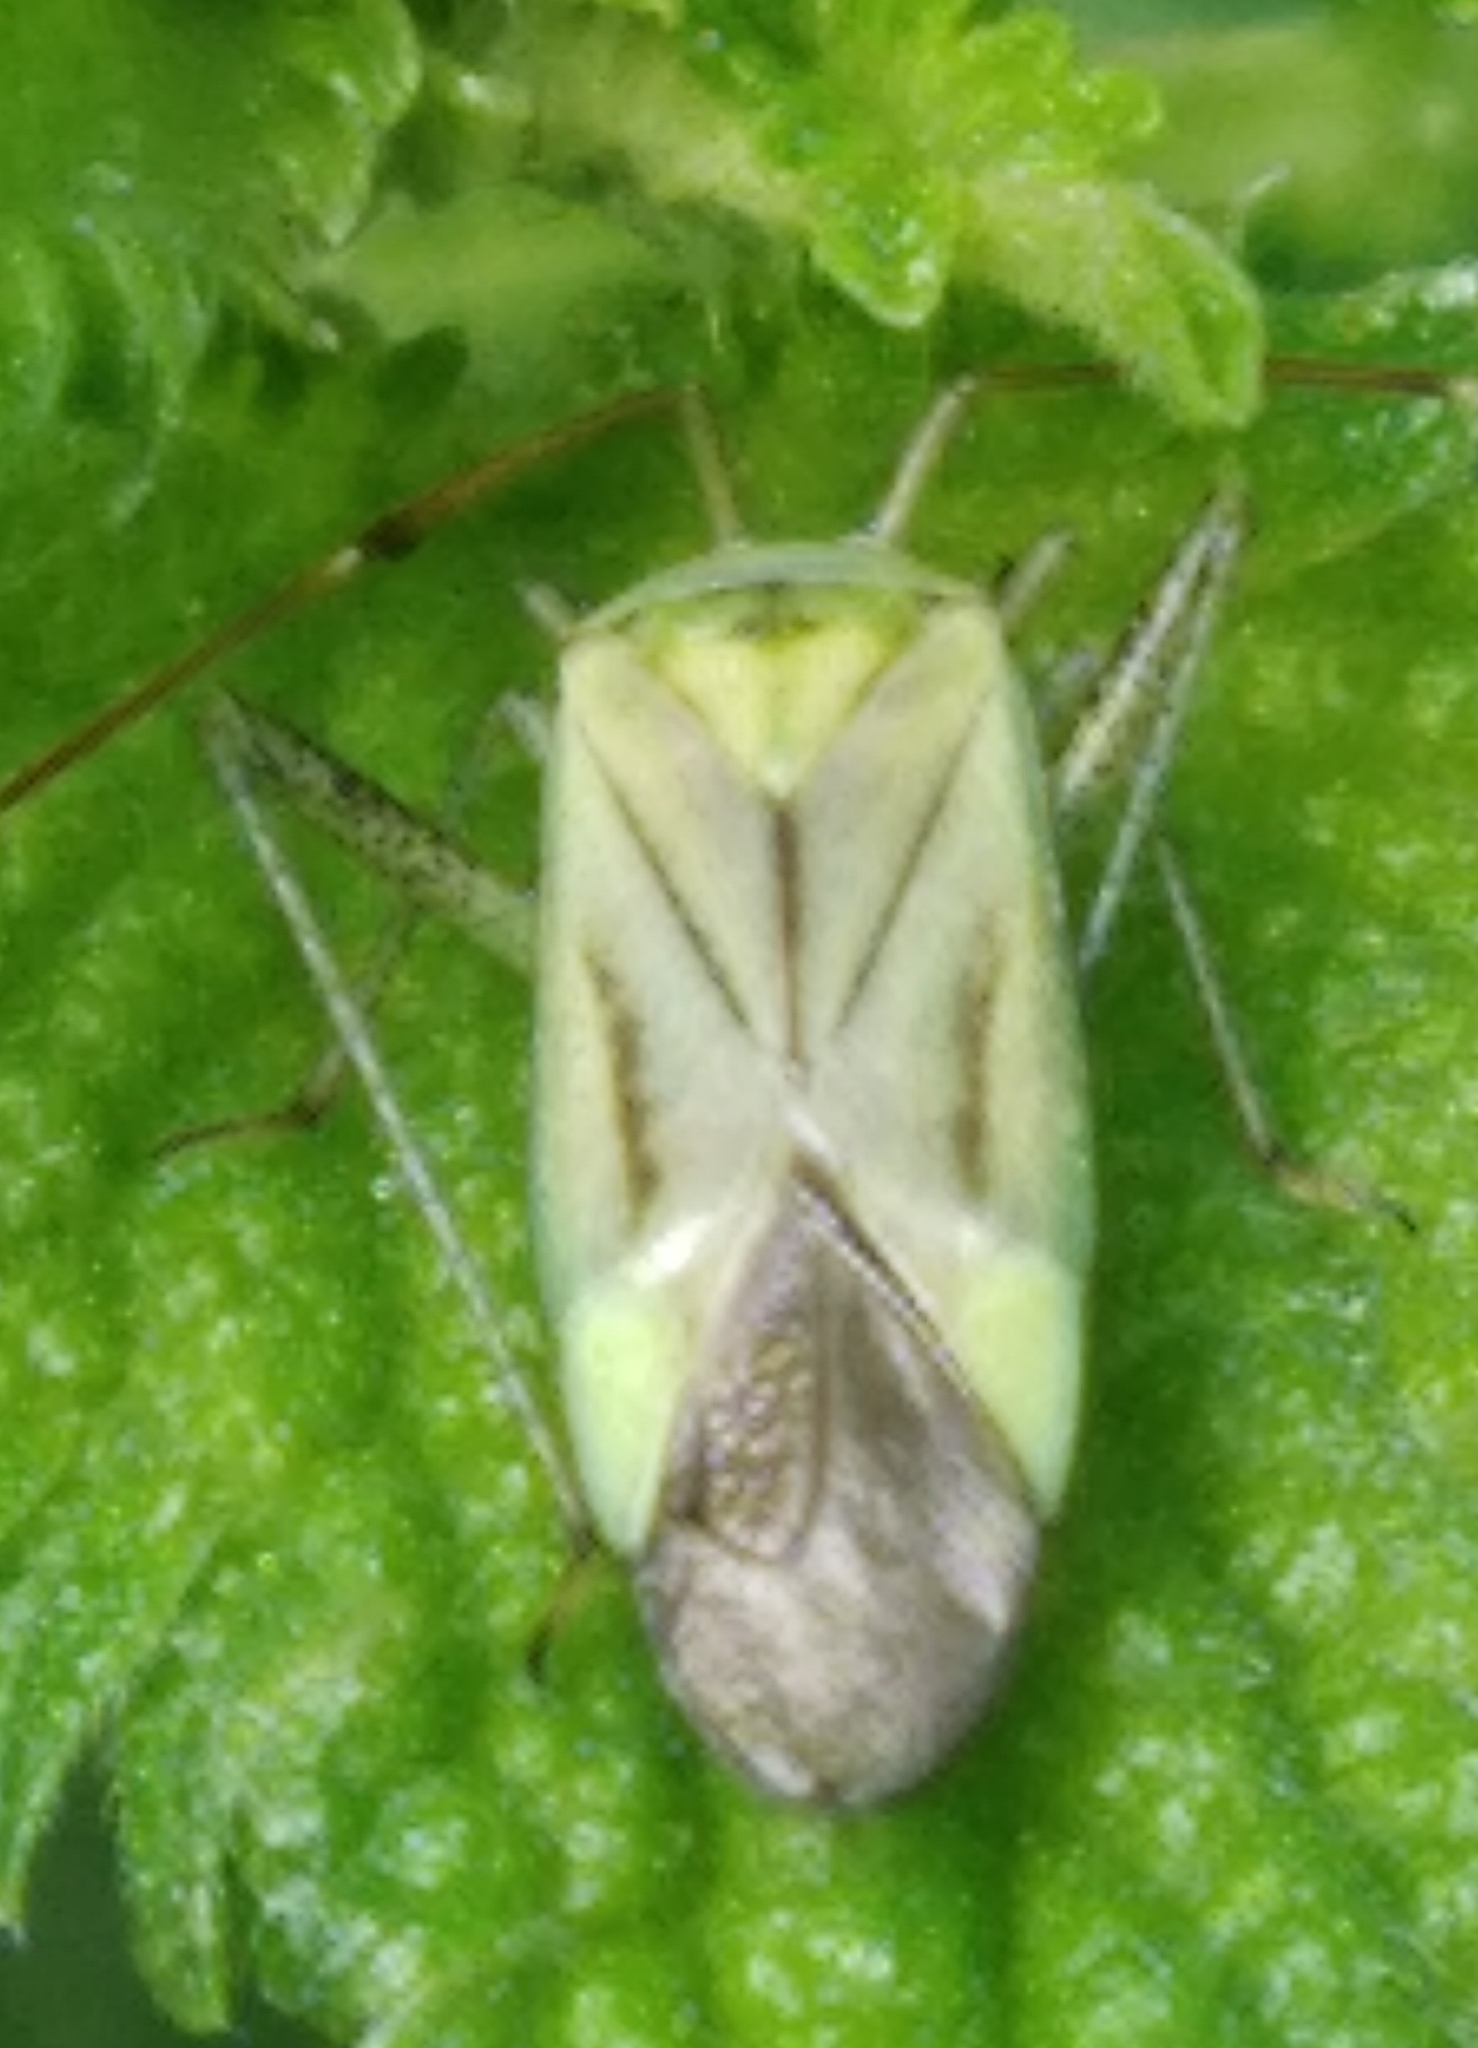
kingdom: Animalia
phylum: Arthropoda
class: Insecta
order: Hemiptera
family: Miridae
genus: Adelphocoris
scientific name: Adelphocoris quadripunctatus
